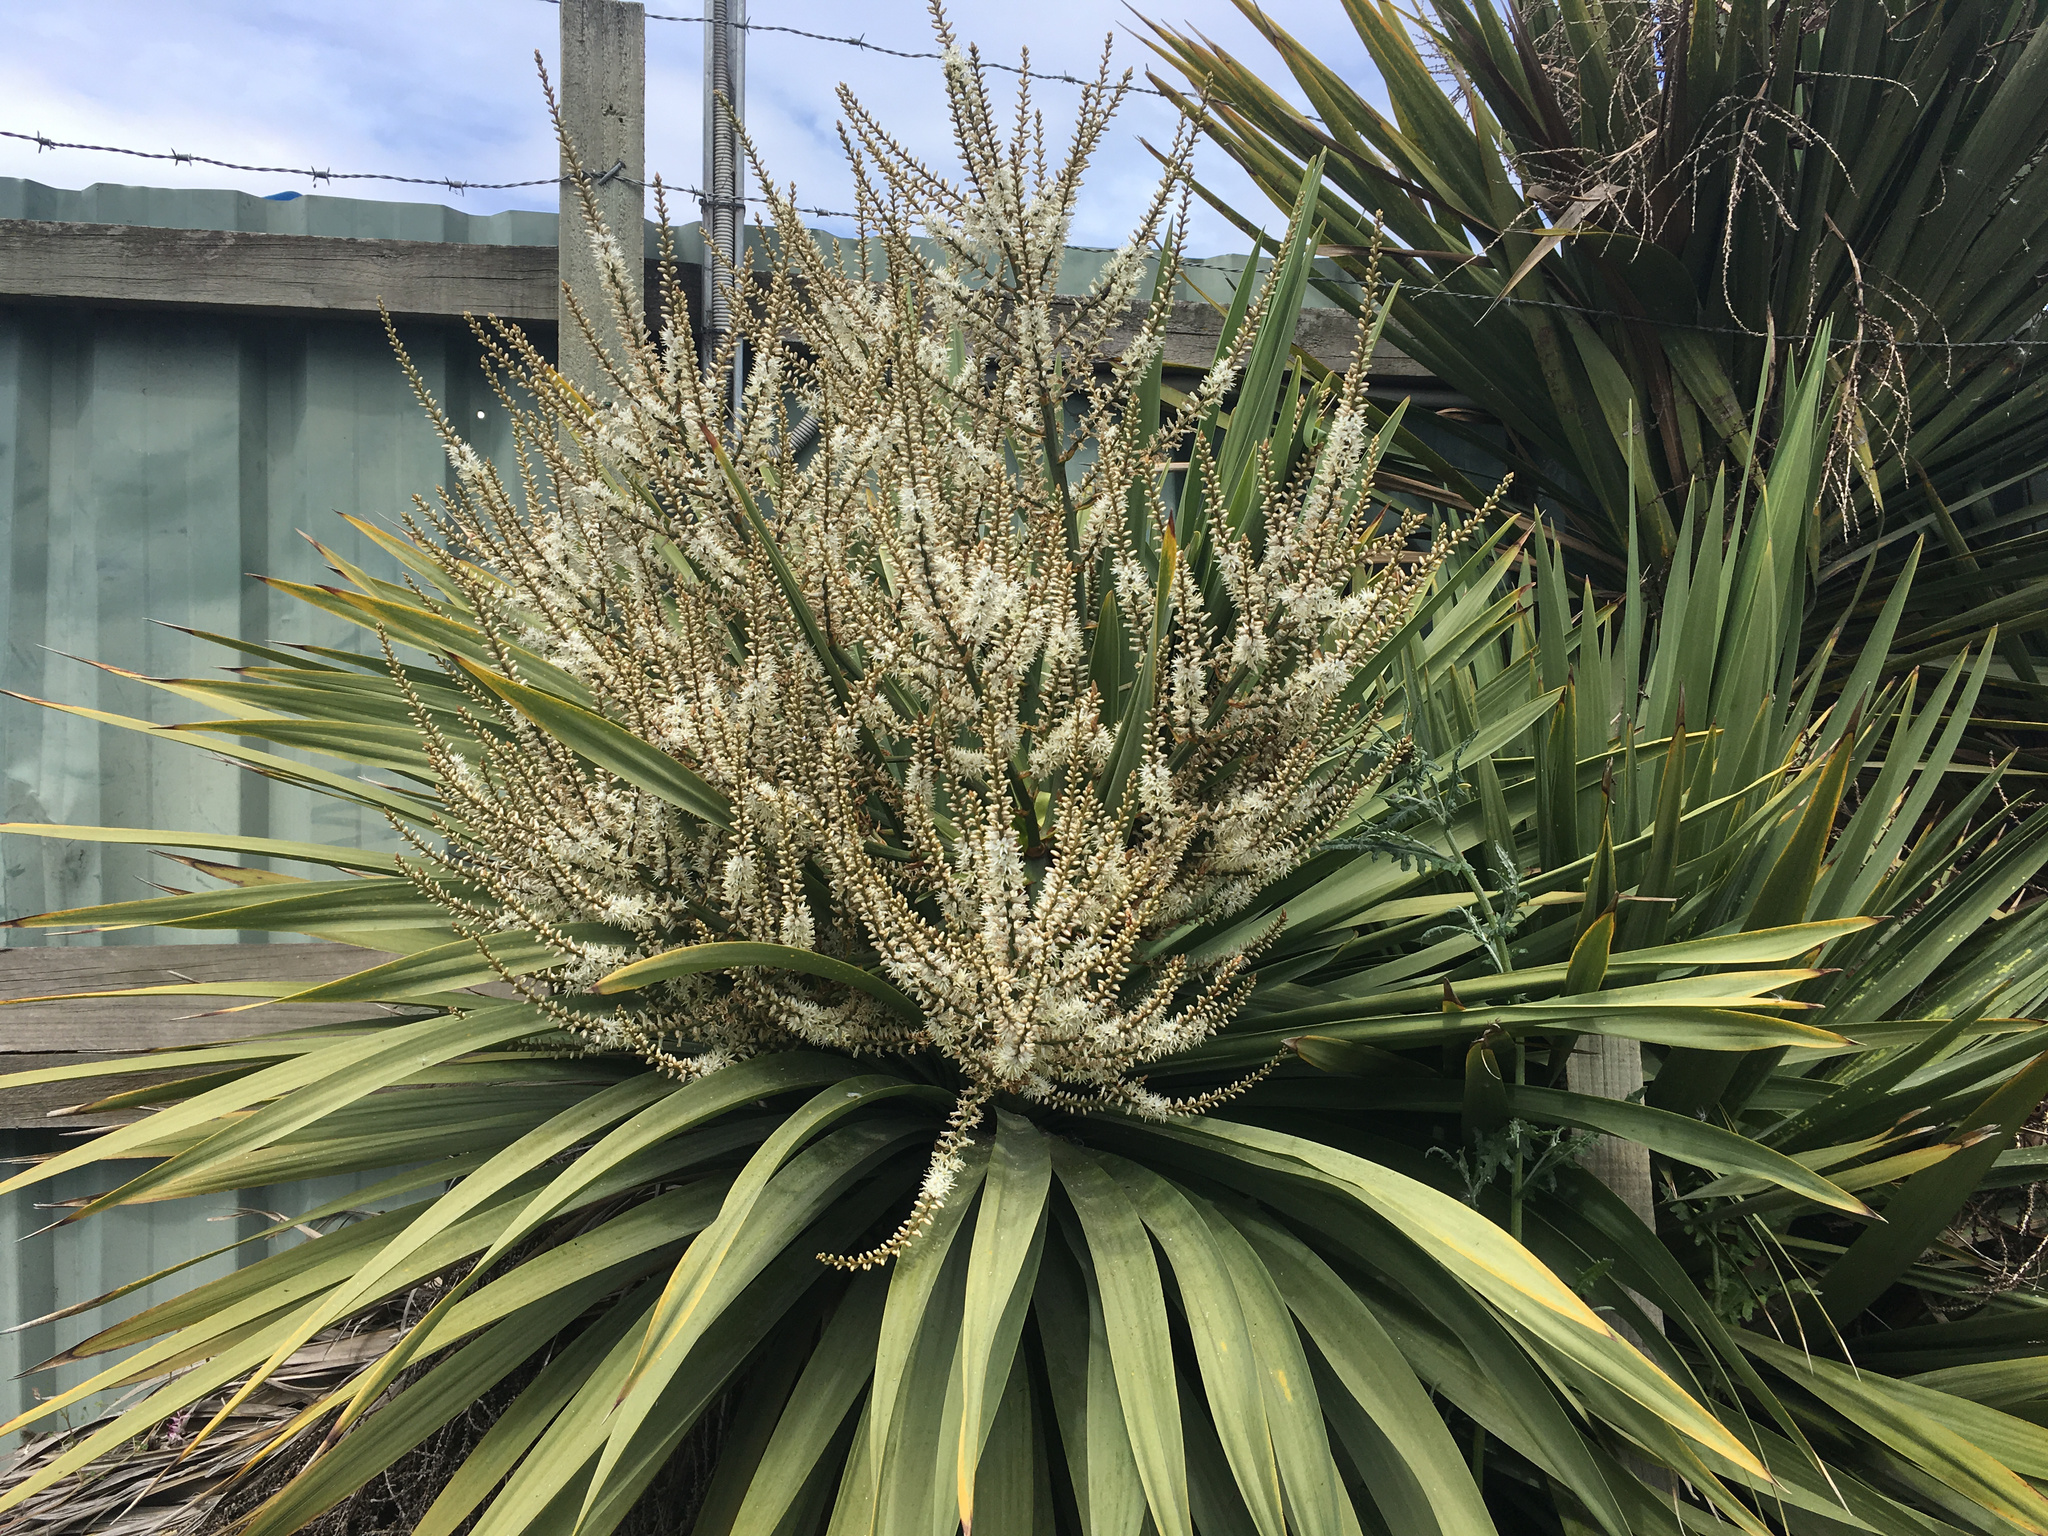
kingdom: Plantae
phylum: Tracheophyta
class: Liliopsida
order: Asparagales
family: Asparagaceae
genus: Cordyline
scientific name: Cordyline australis
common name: Cabbage-palm
